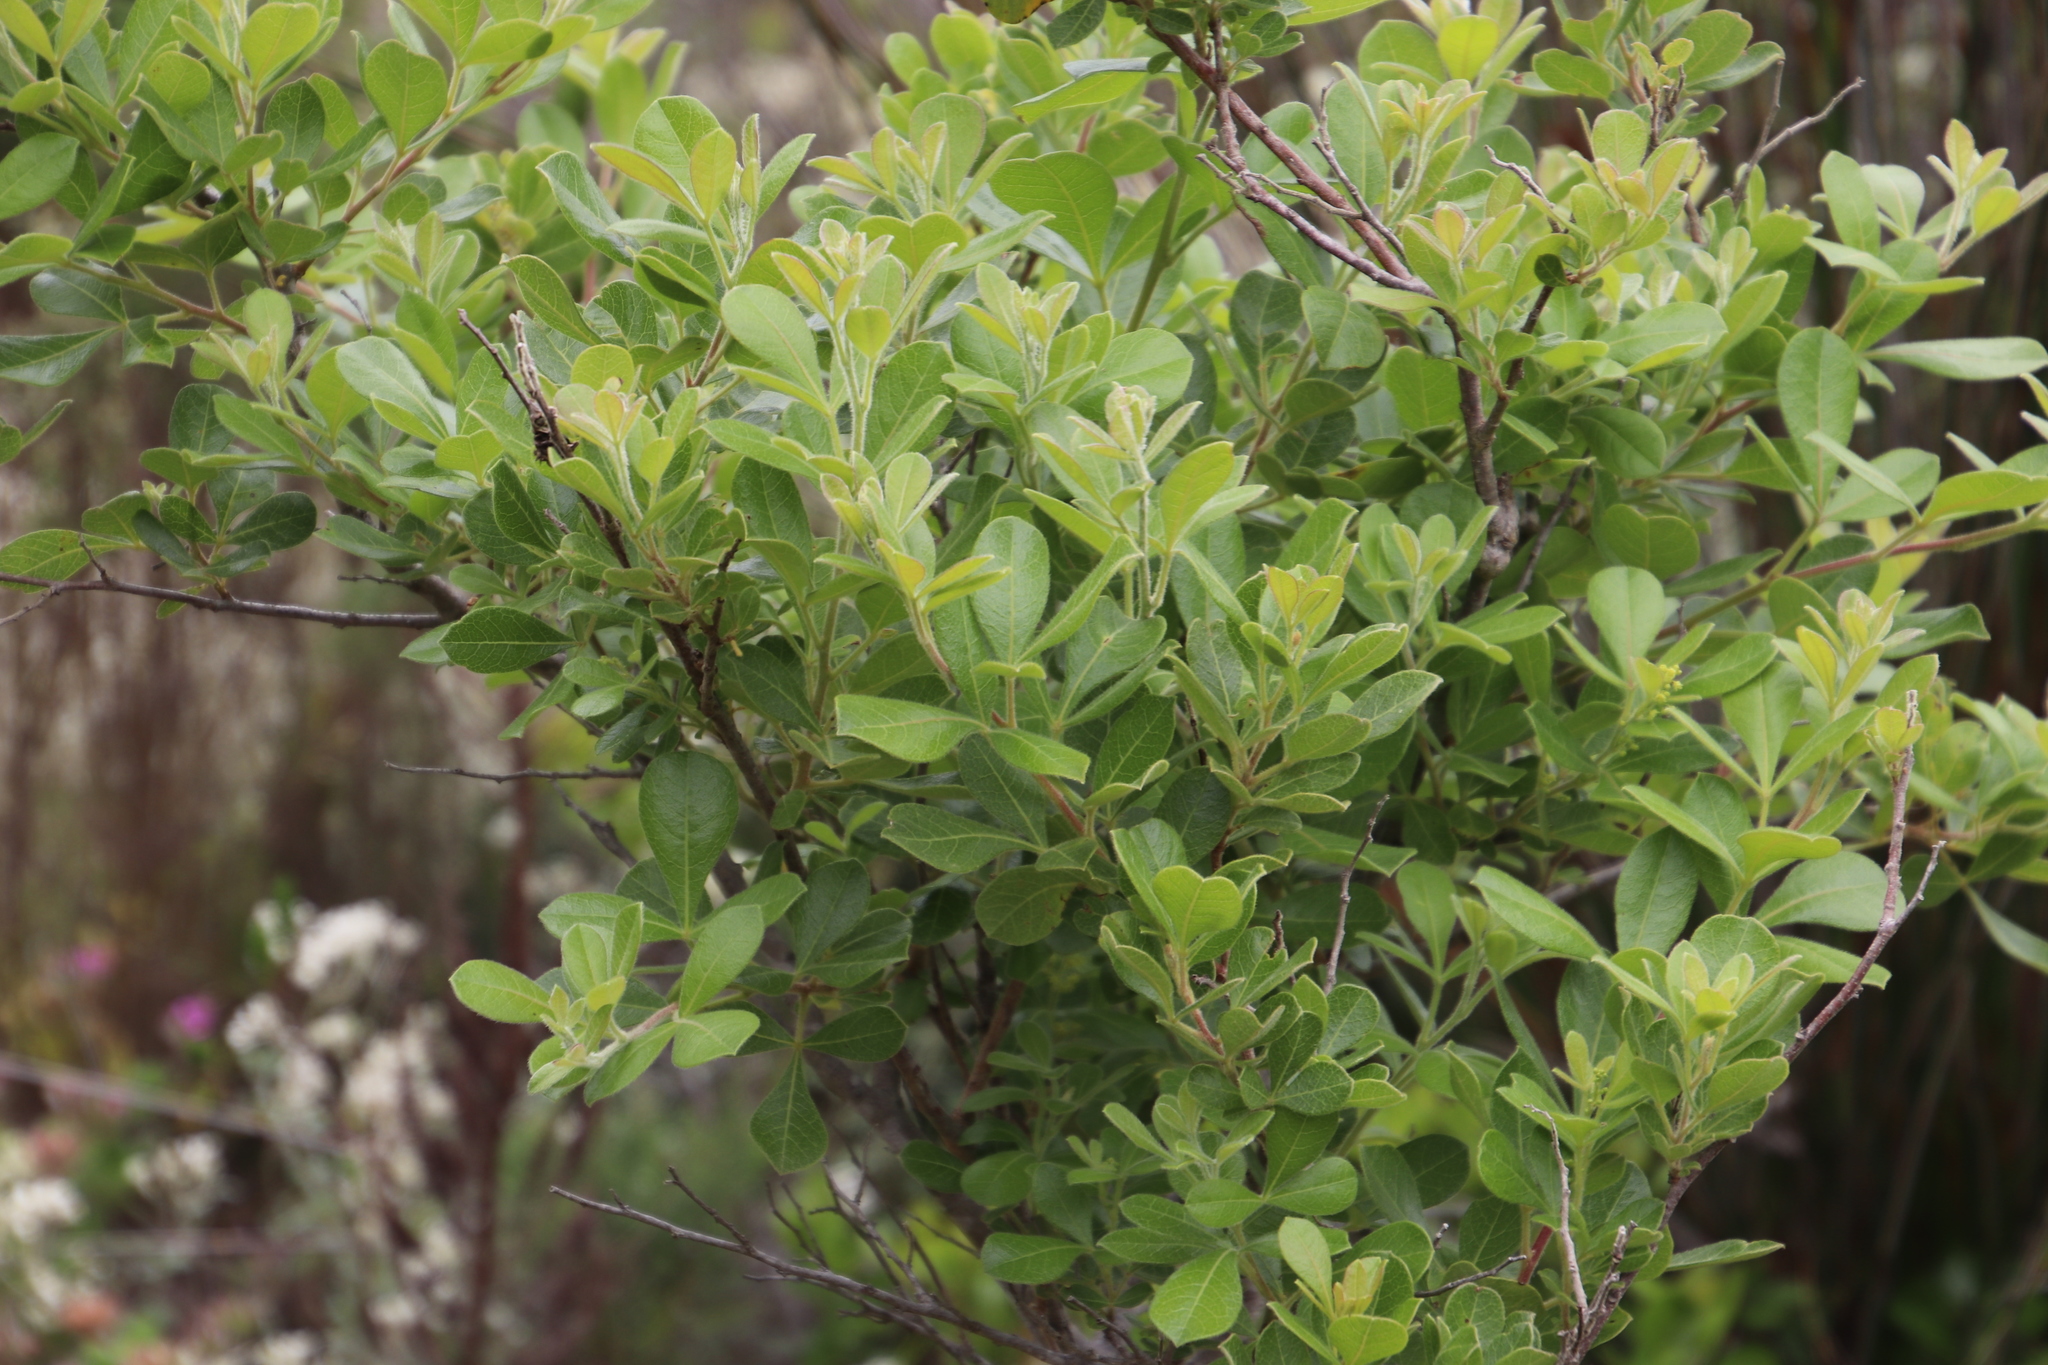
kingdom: Plantae
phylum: Tracheophyta
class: Magnoliopsida
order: Sapindales
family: Anacardiaceae
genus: Searsia
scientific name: Searsia laevigata
